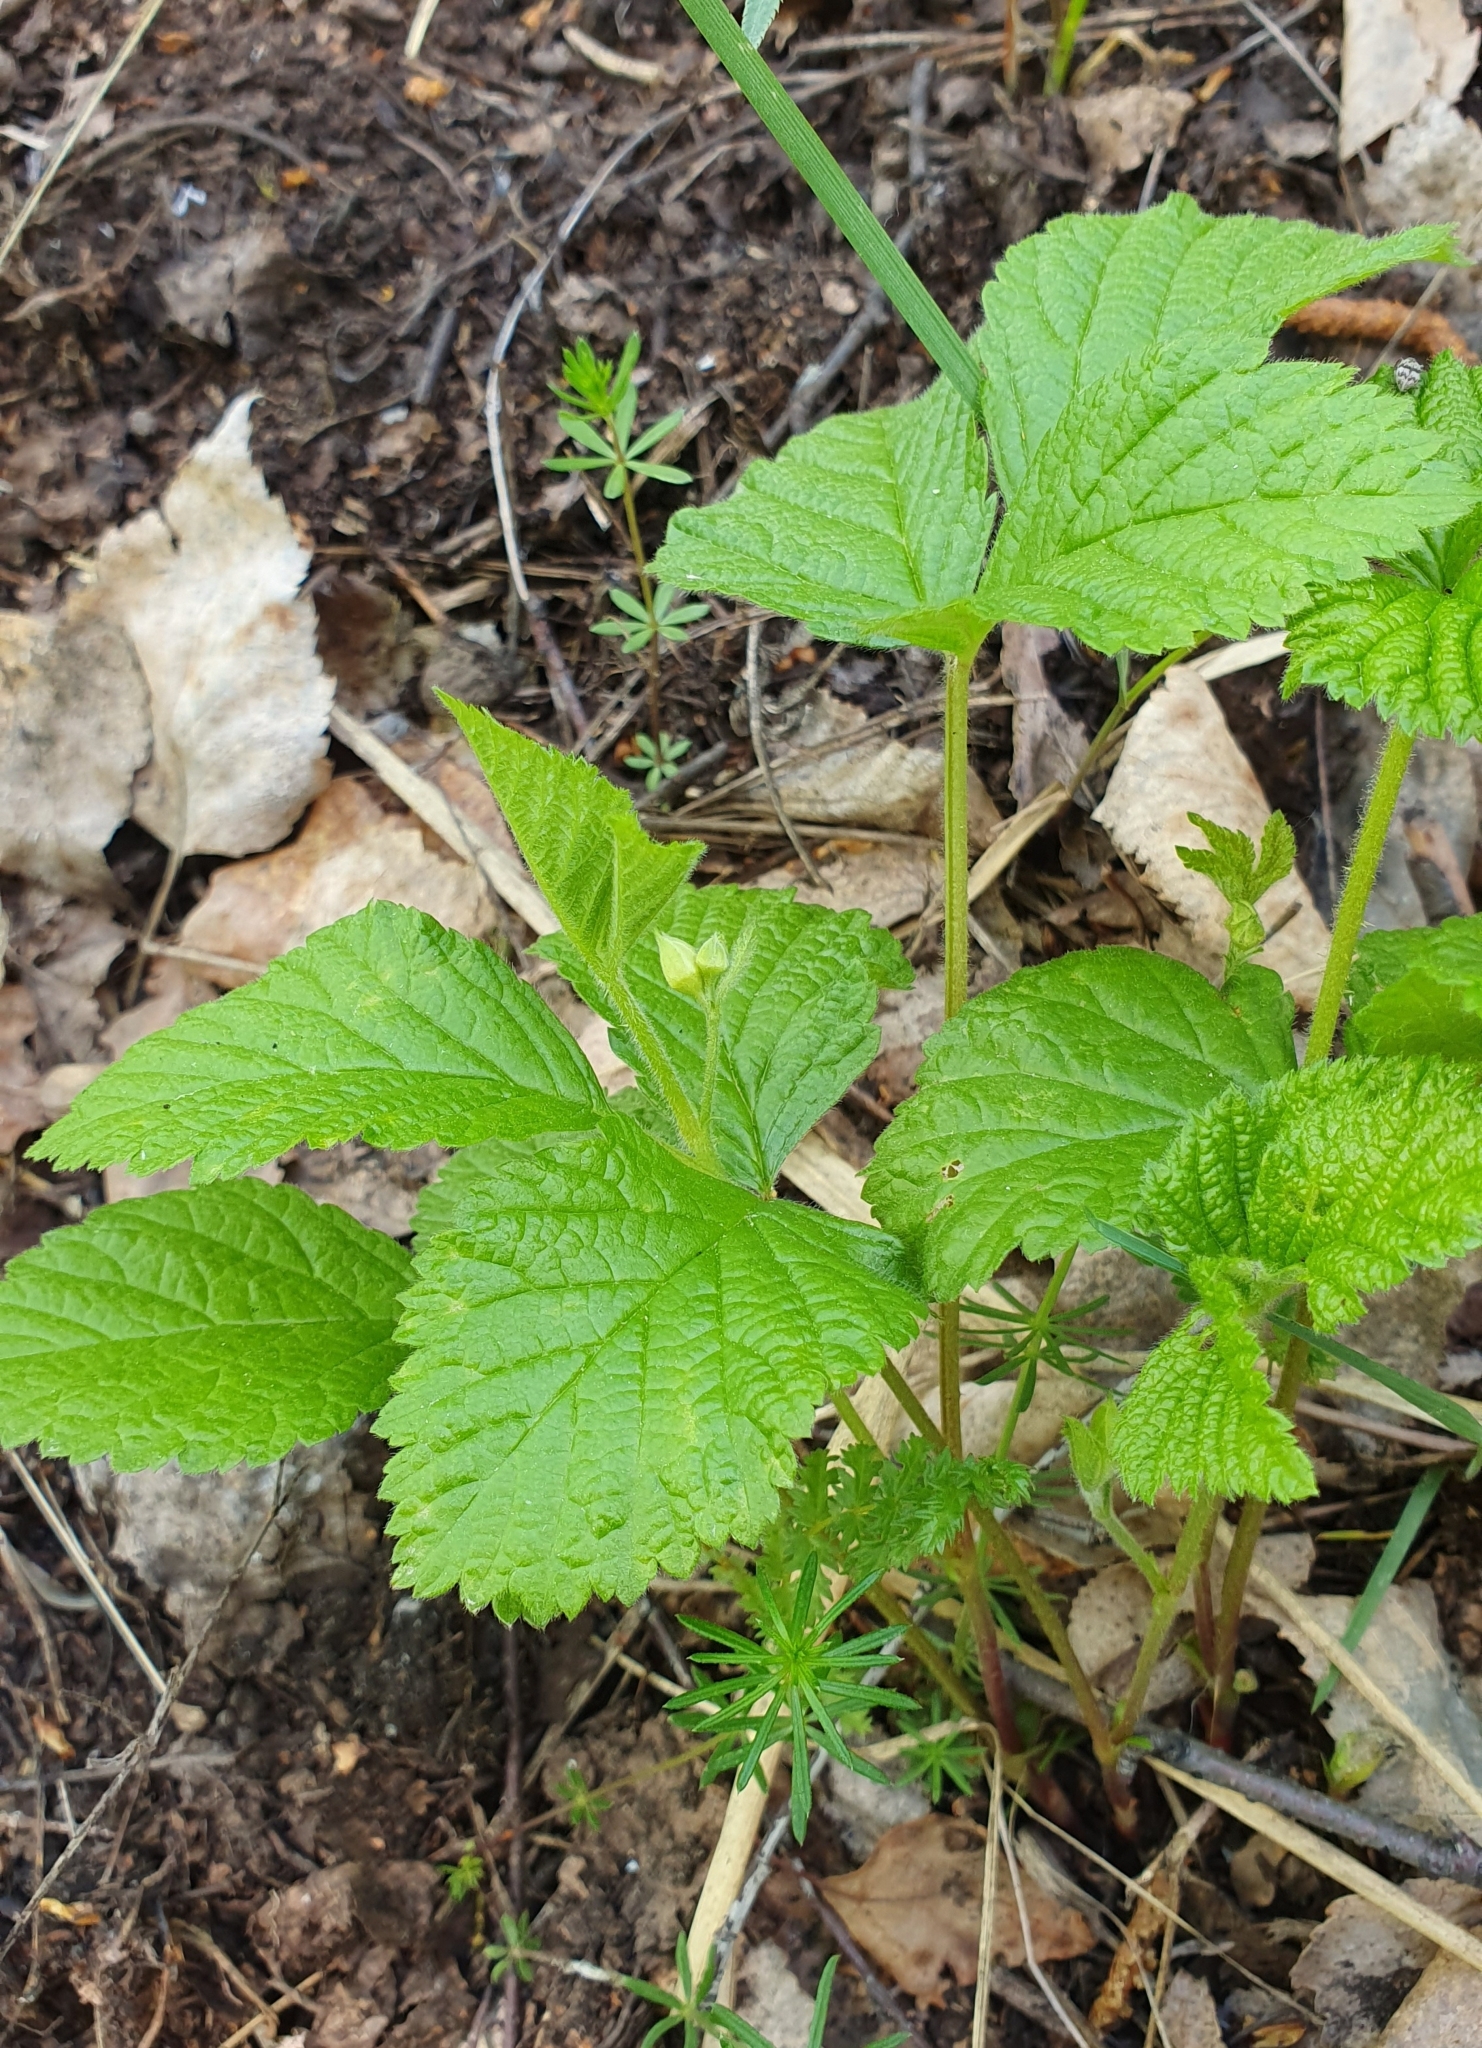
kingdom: Plantae
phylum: Tracheophyta
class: Magnoliopsida
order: Rosales
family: Rosaceae
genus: Rubus
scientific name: Rubus saxatilis
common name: Stone bramble
